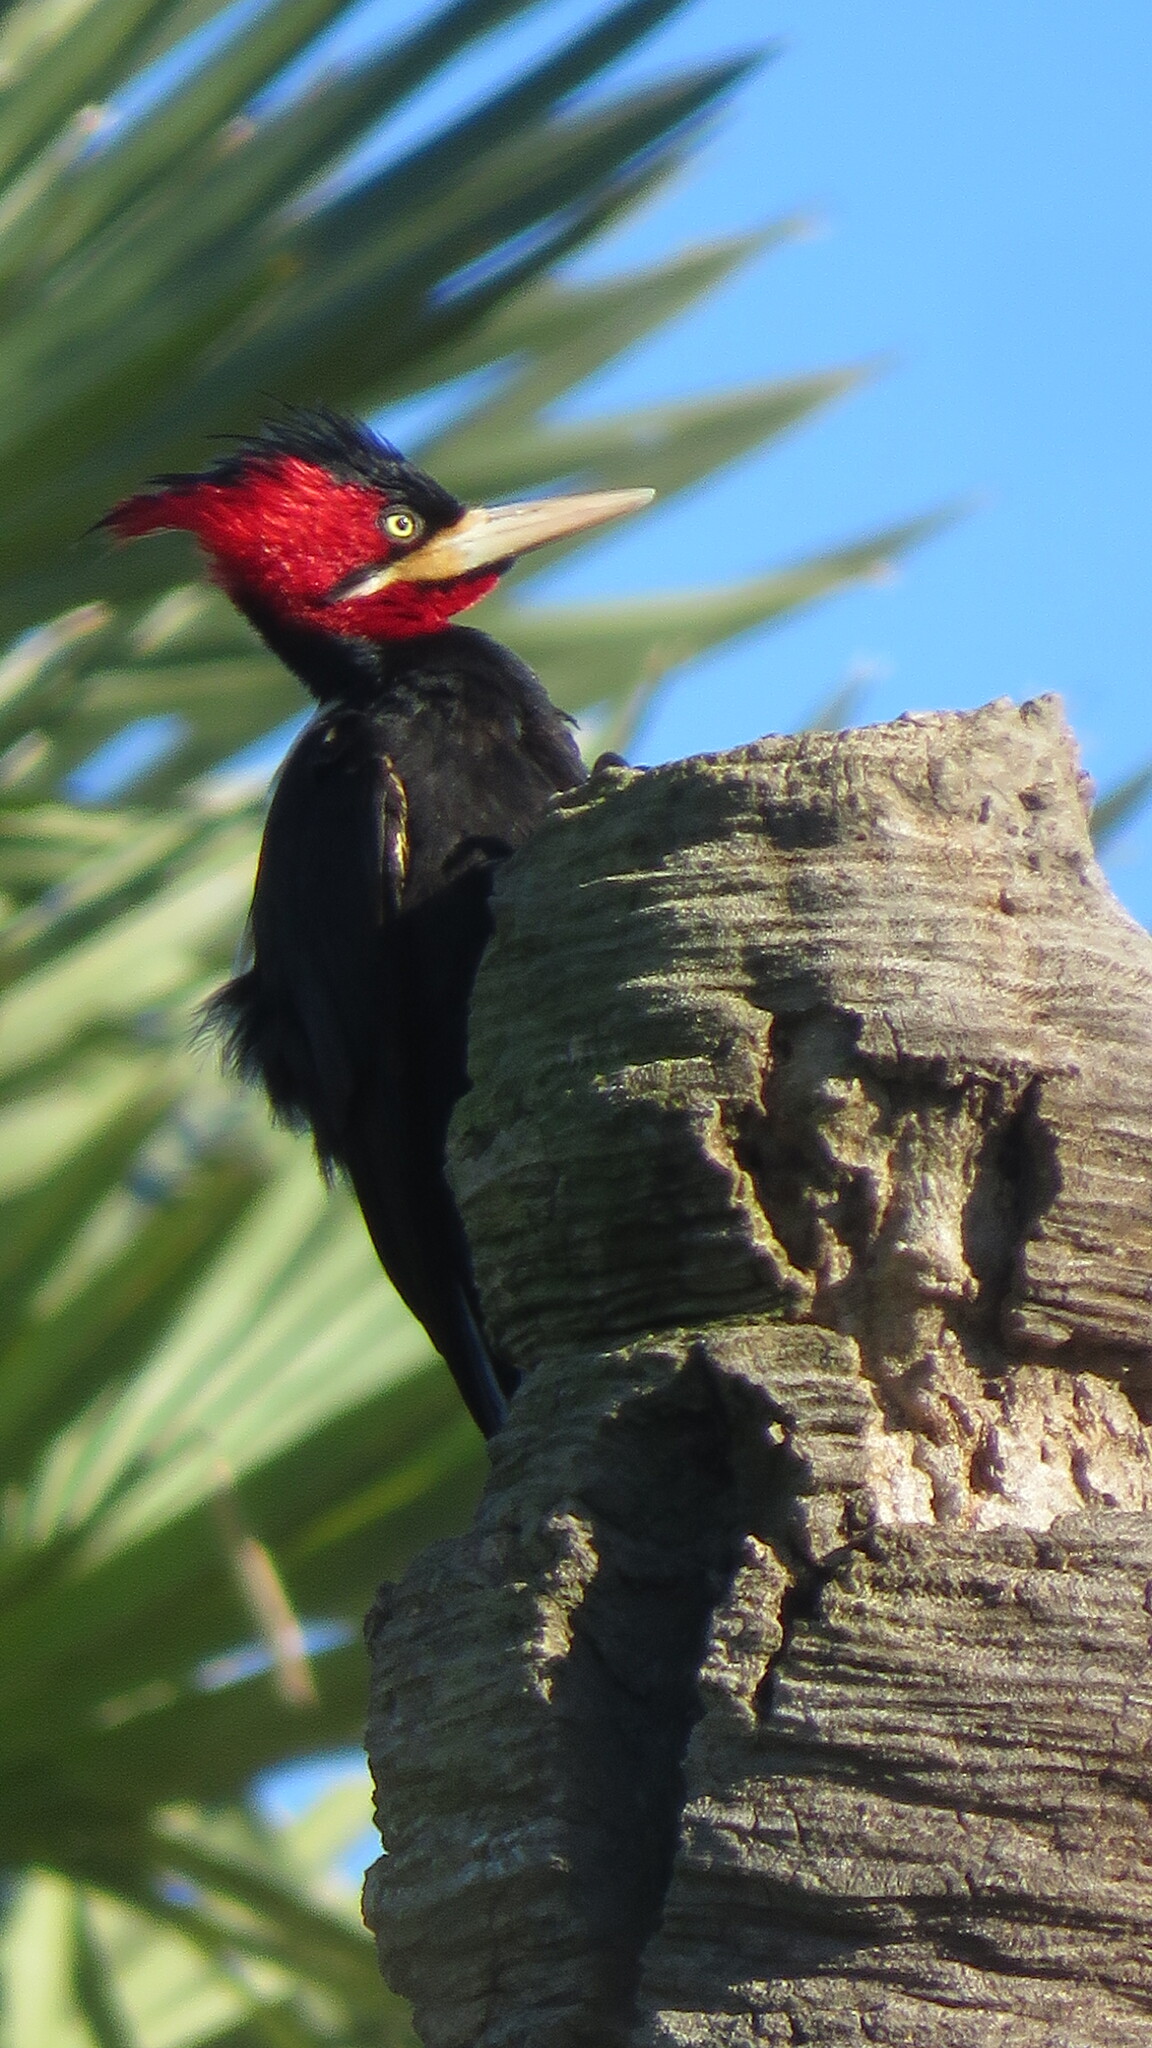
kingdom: Animalia
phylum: Chordata
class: Aves
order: Piciformes
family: Picidae
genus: Campephilus
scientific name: Campephilus leucopogon
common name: Cream-backed woodpecker
